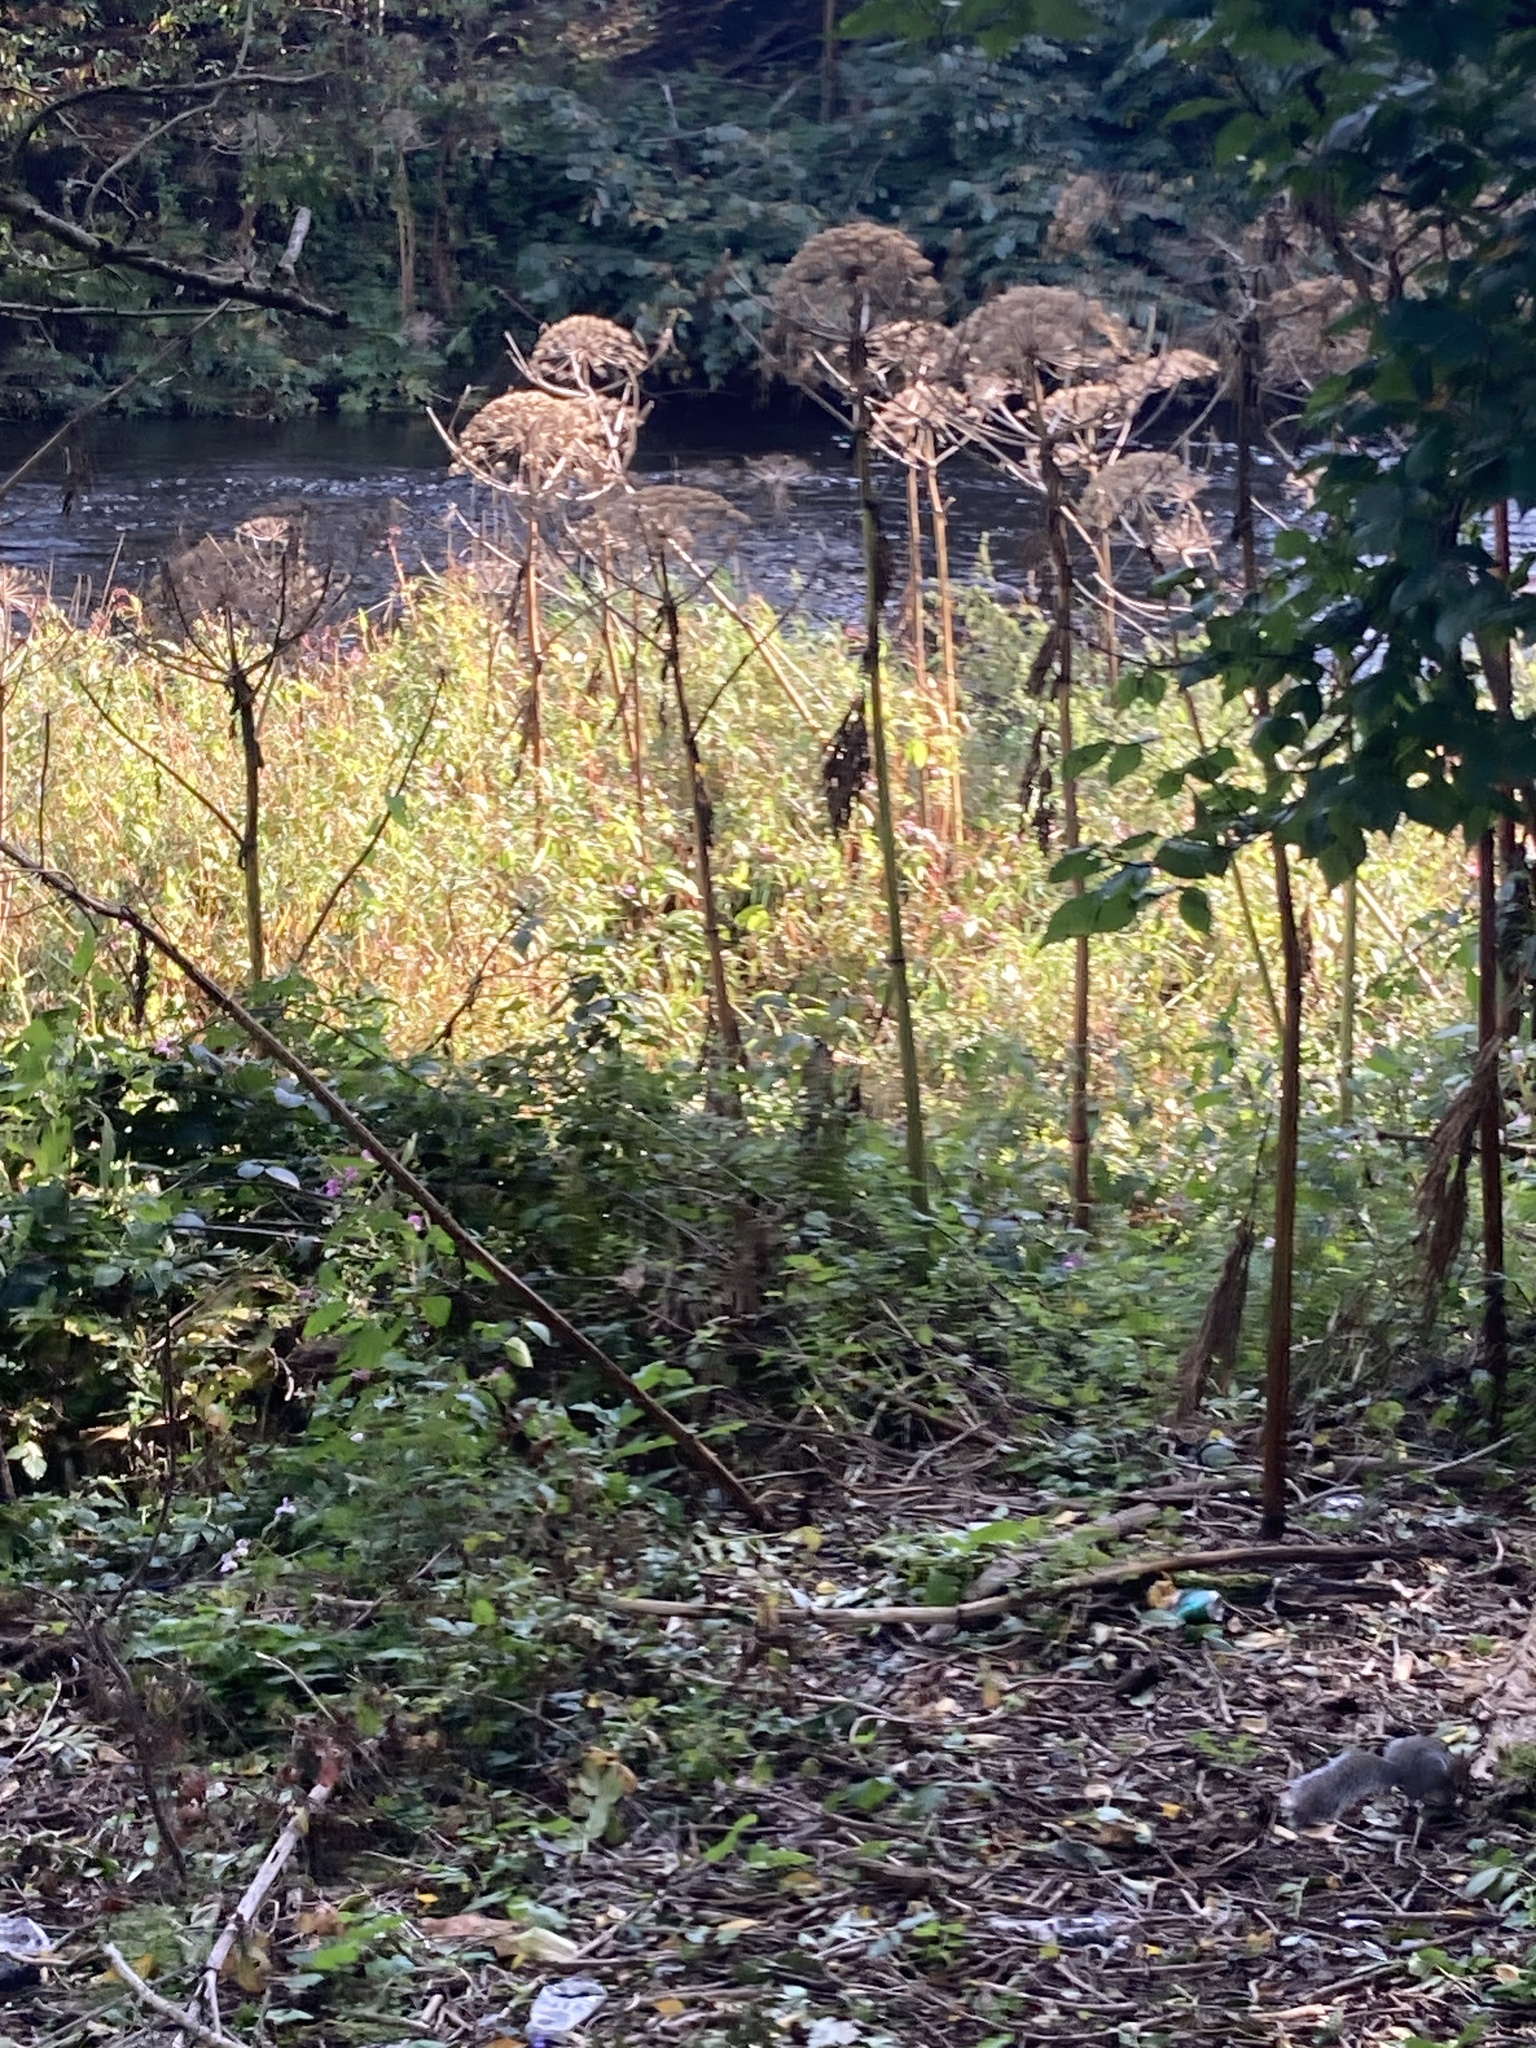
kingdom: Plantae
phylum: Tracheophyta
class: Magnoliopsida
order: Apiales
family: Apiaceae
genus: Heracleum
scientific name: Heracleum mantegazzianum
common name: Giant hogweed
